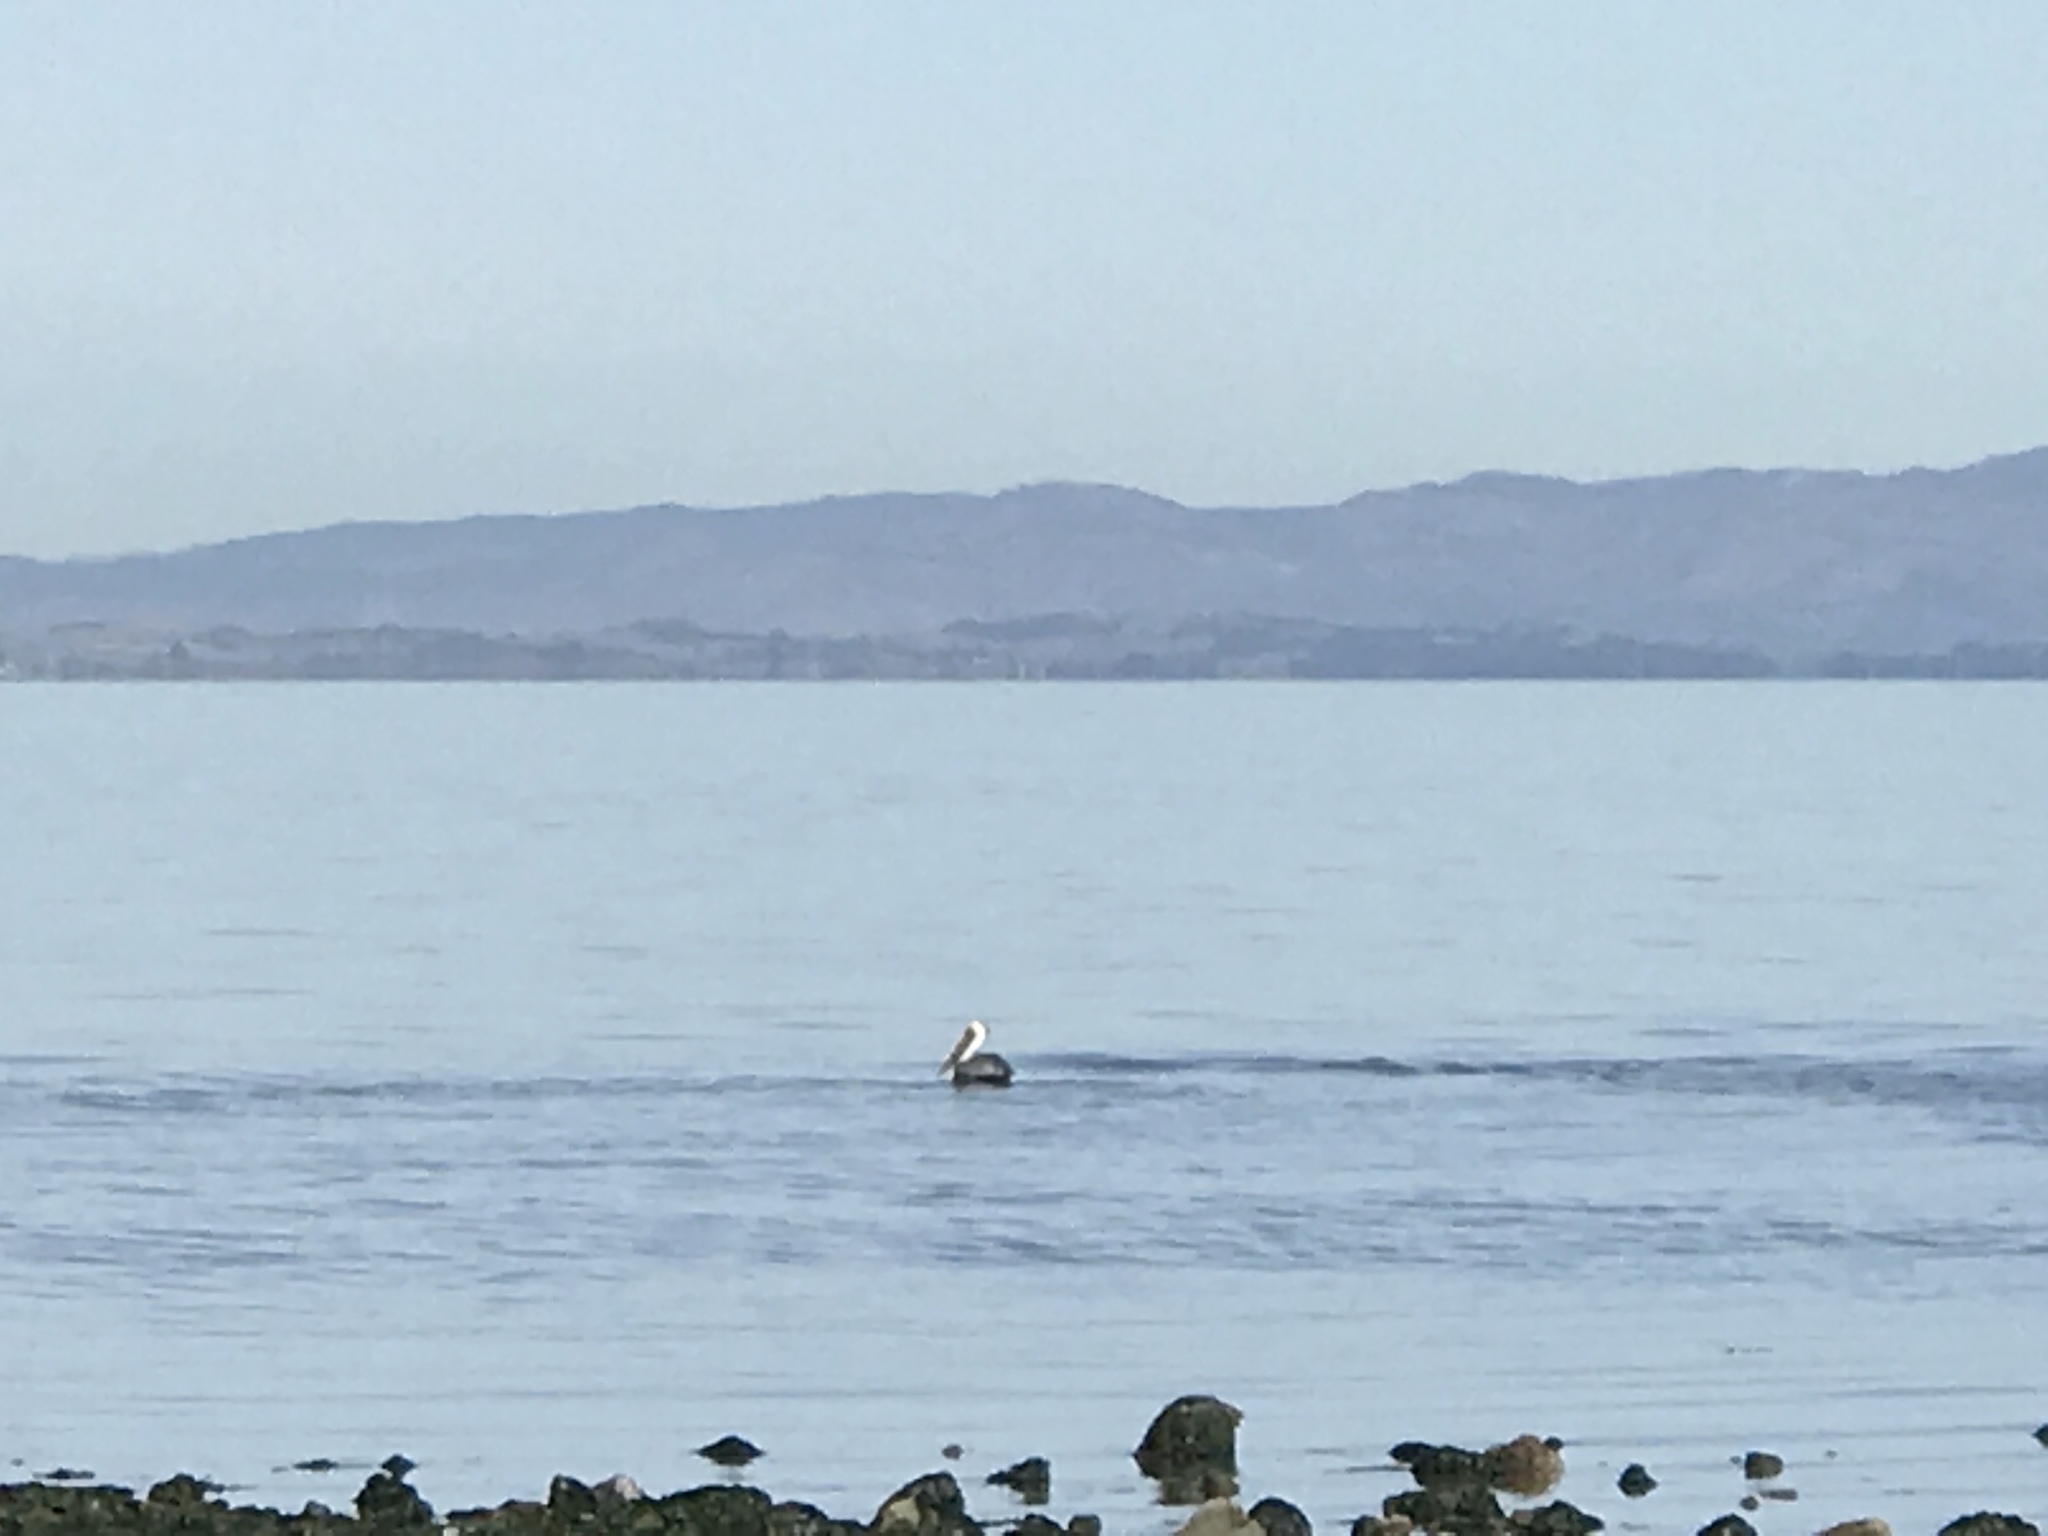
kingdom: Animalia
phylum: Chordata
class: Aves
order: Pelecaniformes
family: Pelecanidae
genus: Pelecanus
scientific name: Pelecanus occidentalis
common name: Brown pelican
